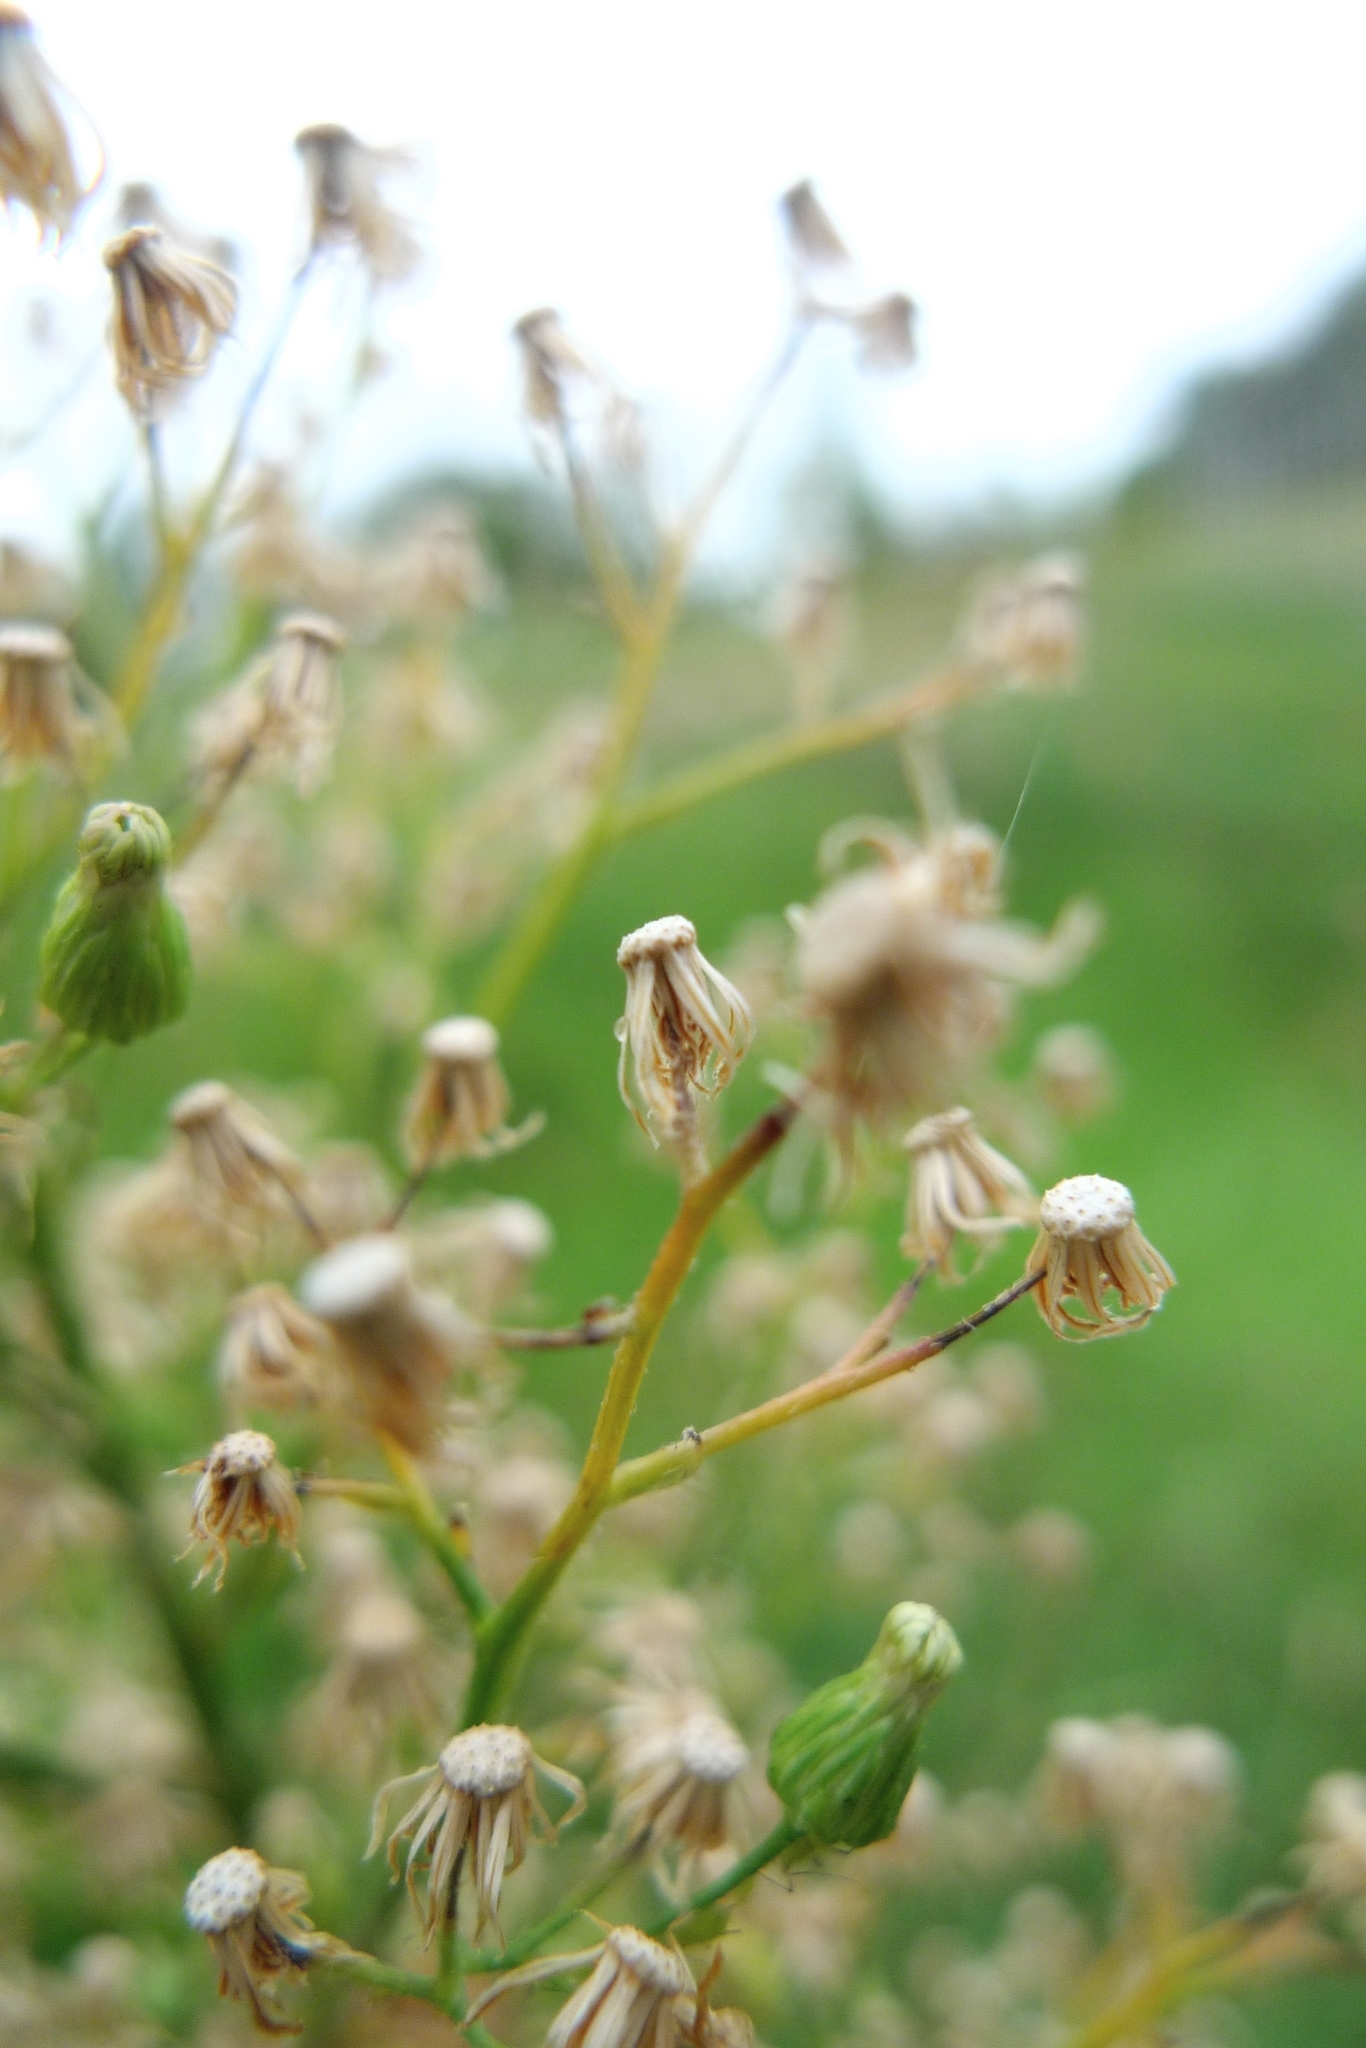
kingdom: Plantae
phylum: Tracheophyta
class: Magnoliopsida
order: Asterales
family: Asteraceae
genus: Erigeron
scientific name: Erigeron canadensis
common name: Canadian fleabane
